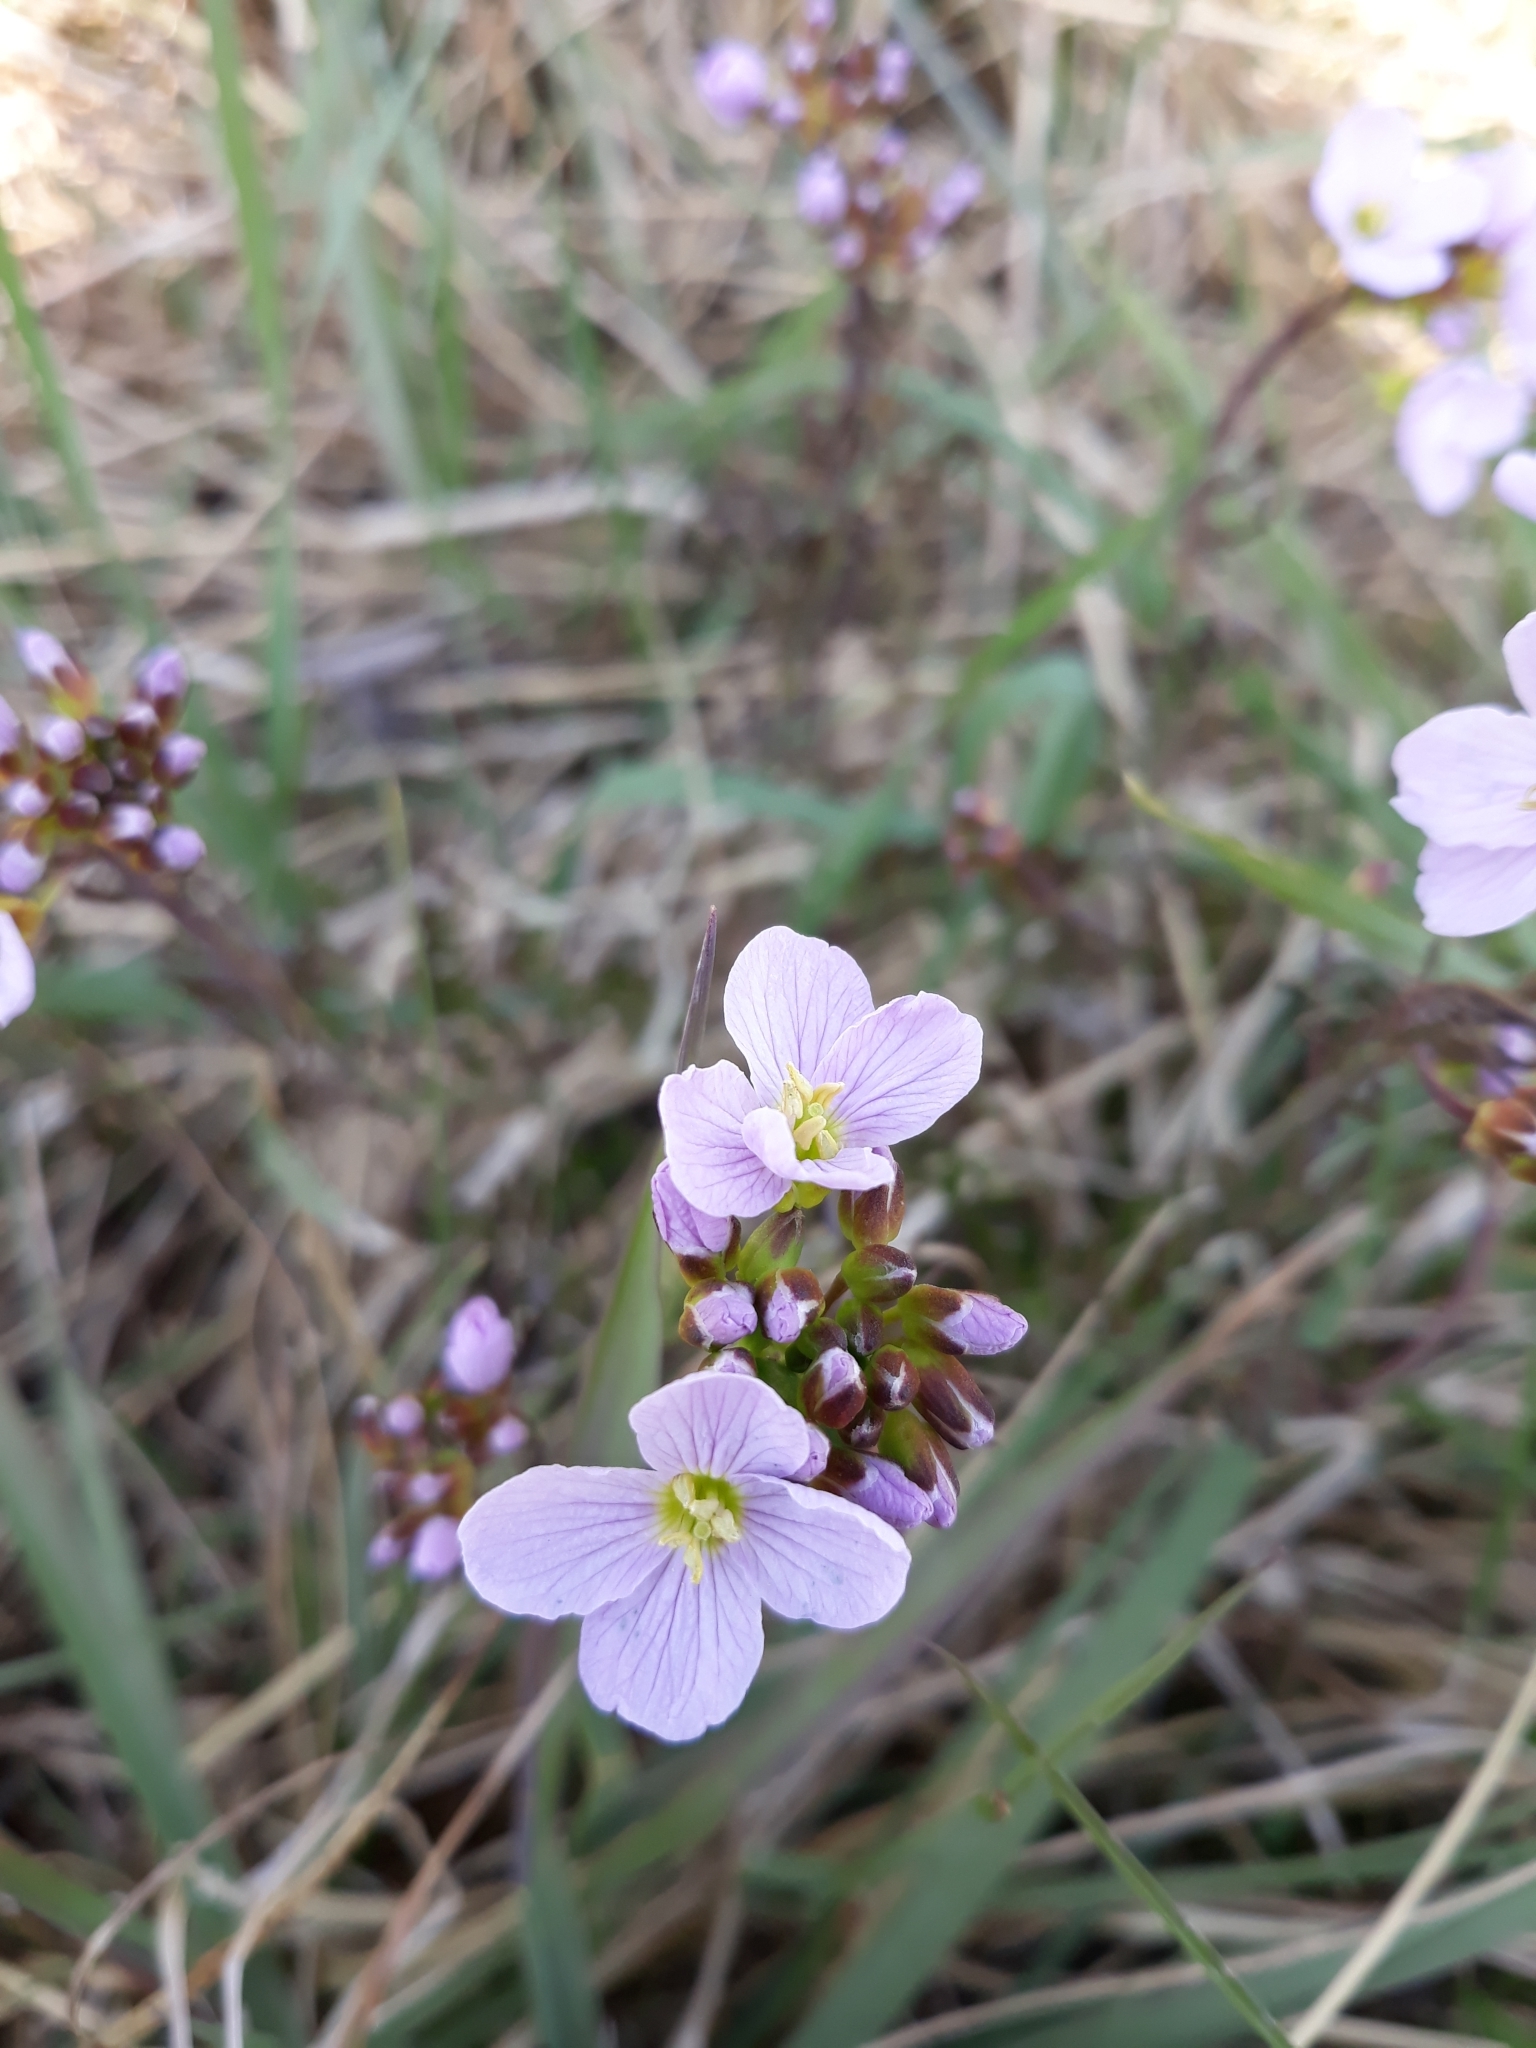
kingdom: Plantae
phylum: Tracheophyta
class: Magnoliopsida
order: Brassicales
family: Brassicaceae
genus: Cardamine
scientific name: Cardamine pratensis
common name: Cuckoo flower
